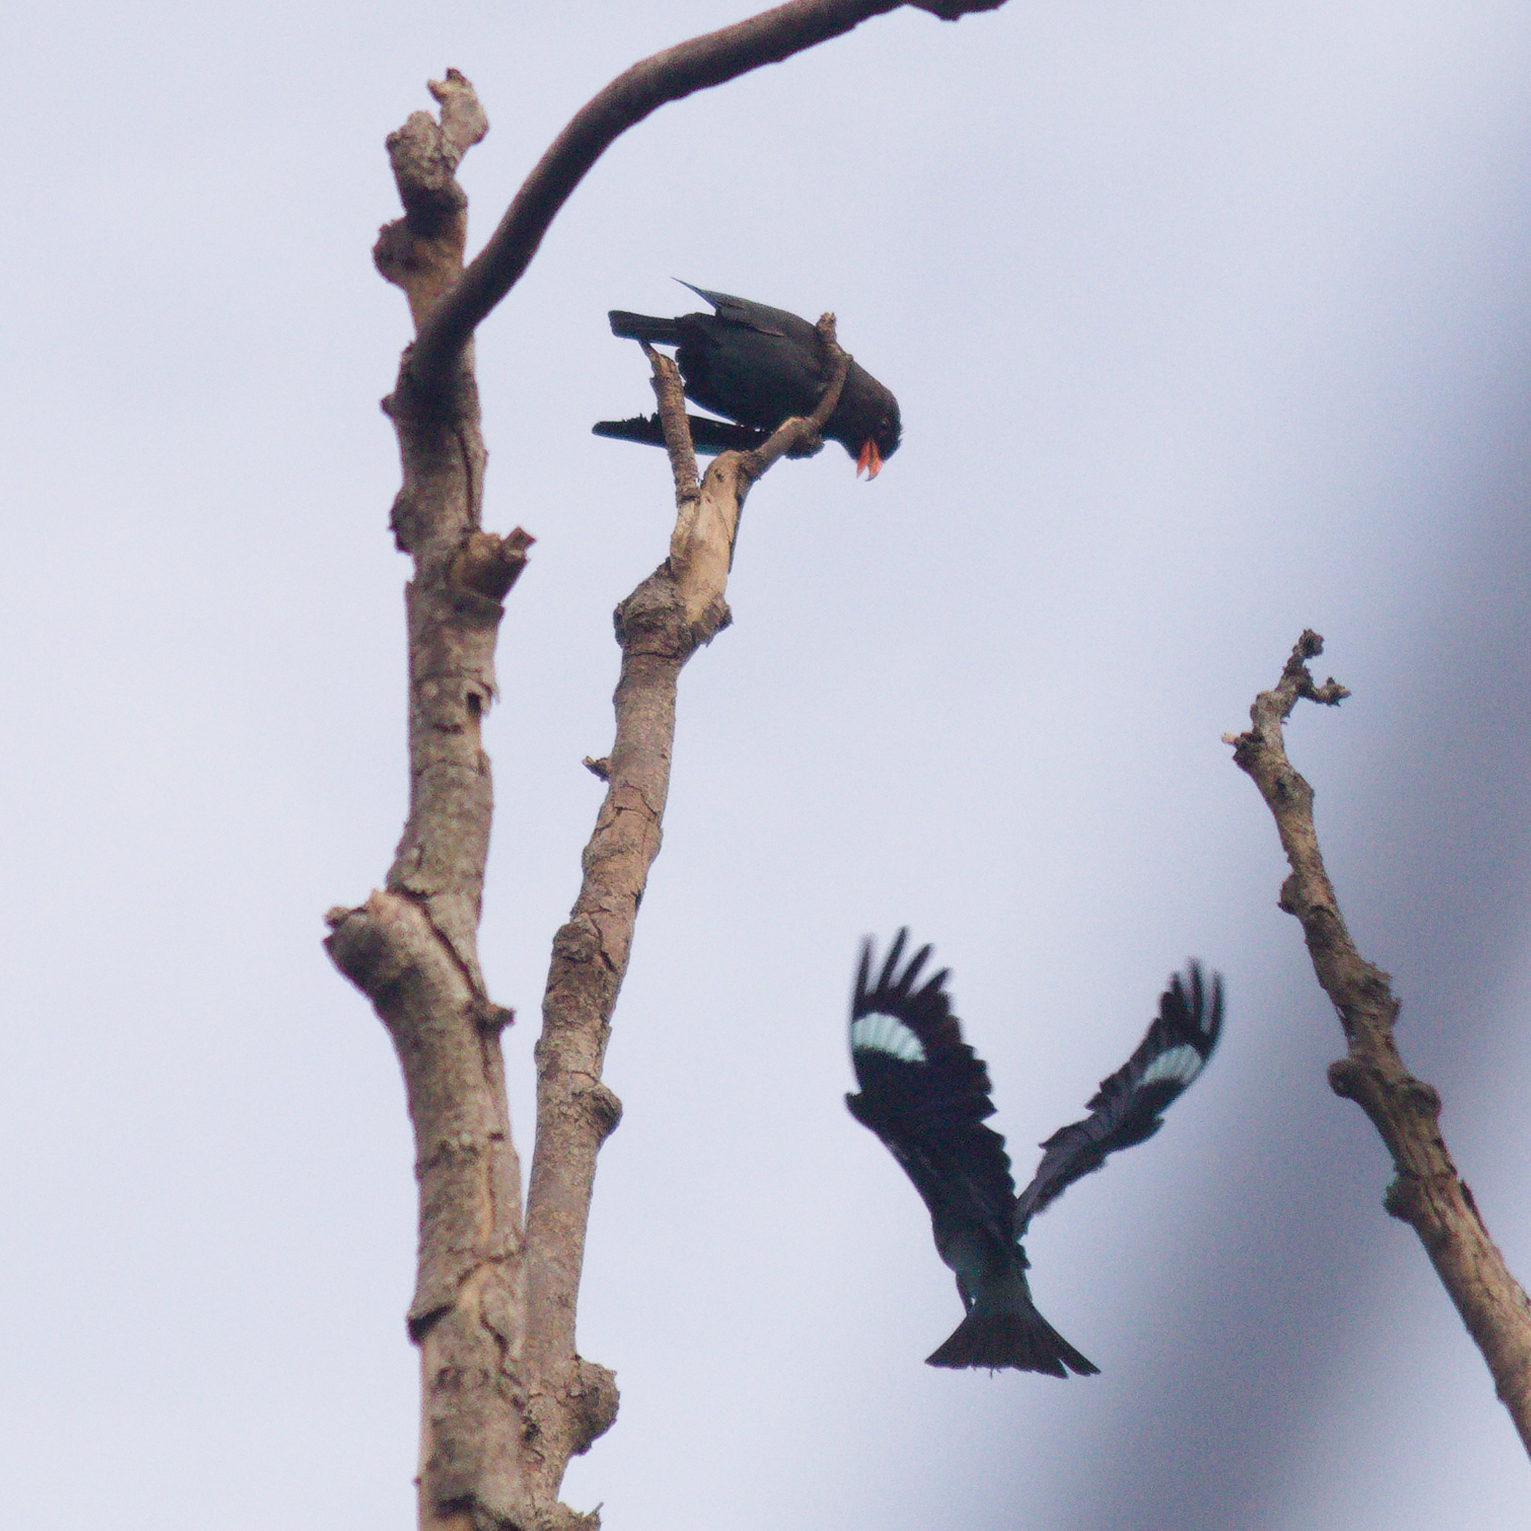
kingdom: Animalia
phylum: Chordata
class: Aves
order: Coraciiformes
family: Coraciidae
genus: Eurystomus
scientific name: Eurystomus orientalis
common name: Oriental dollarbird
